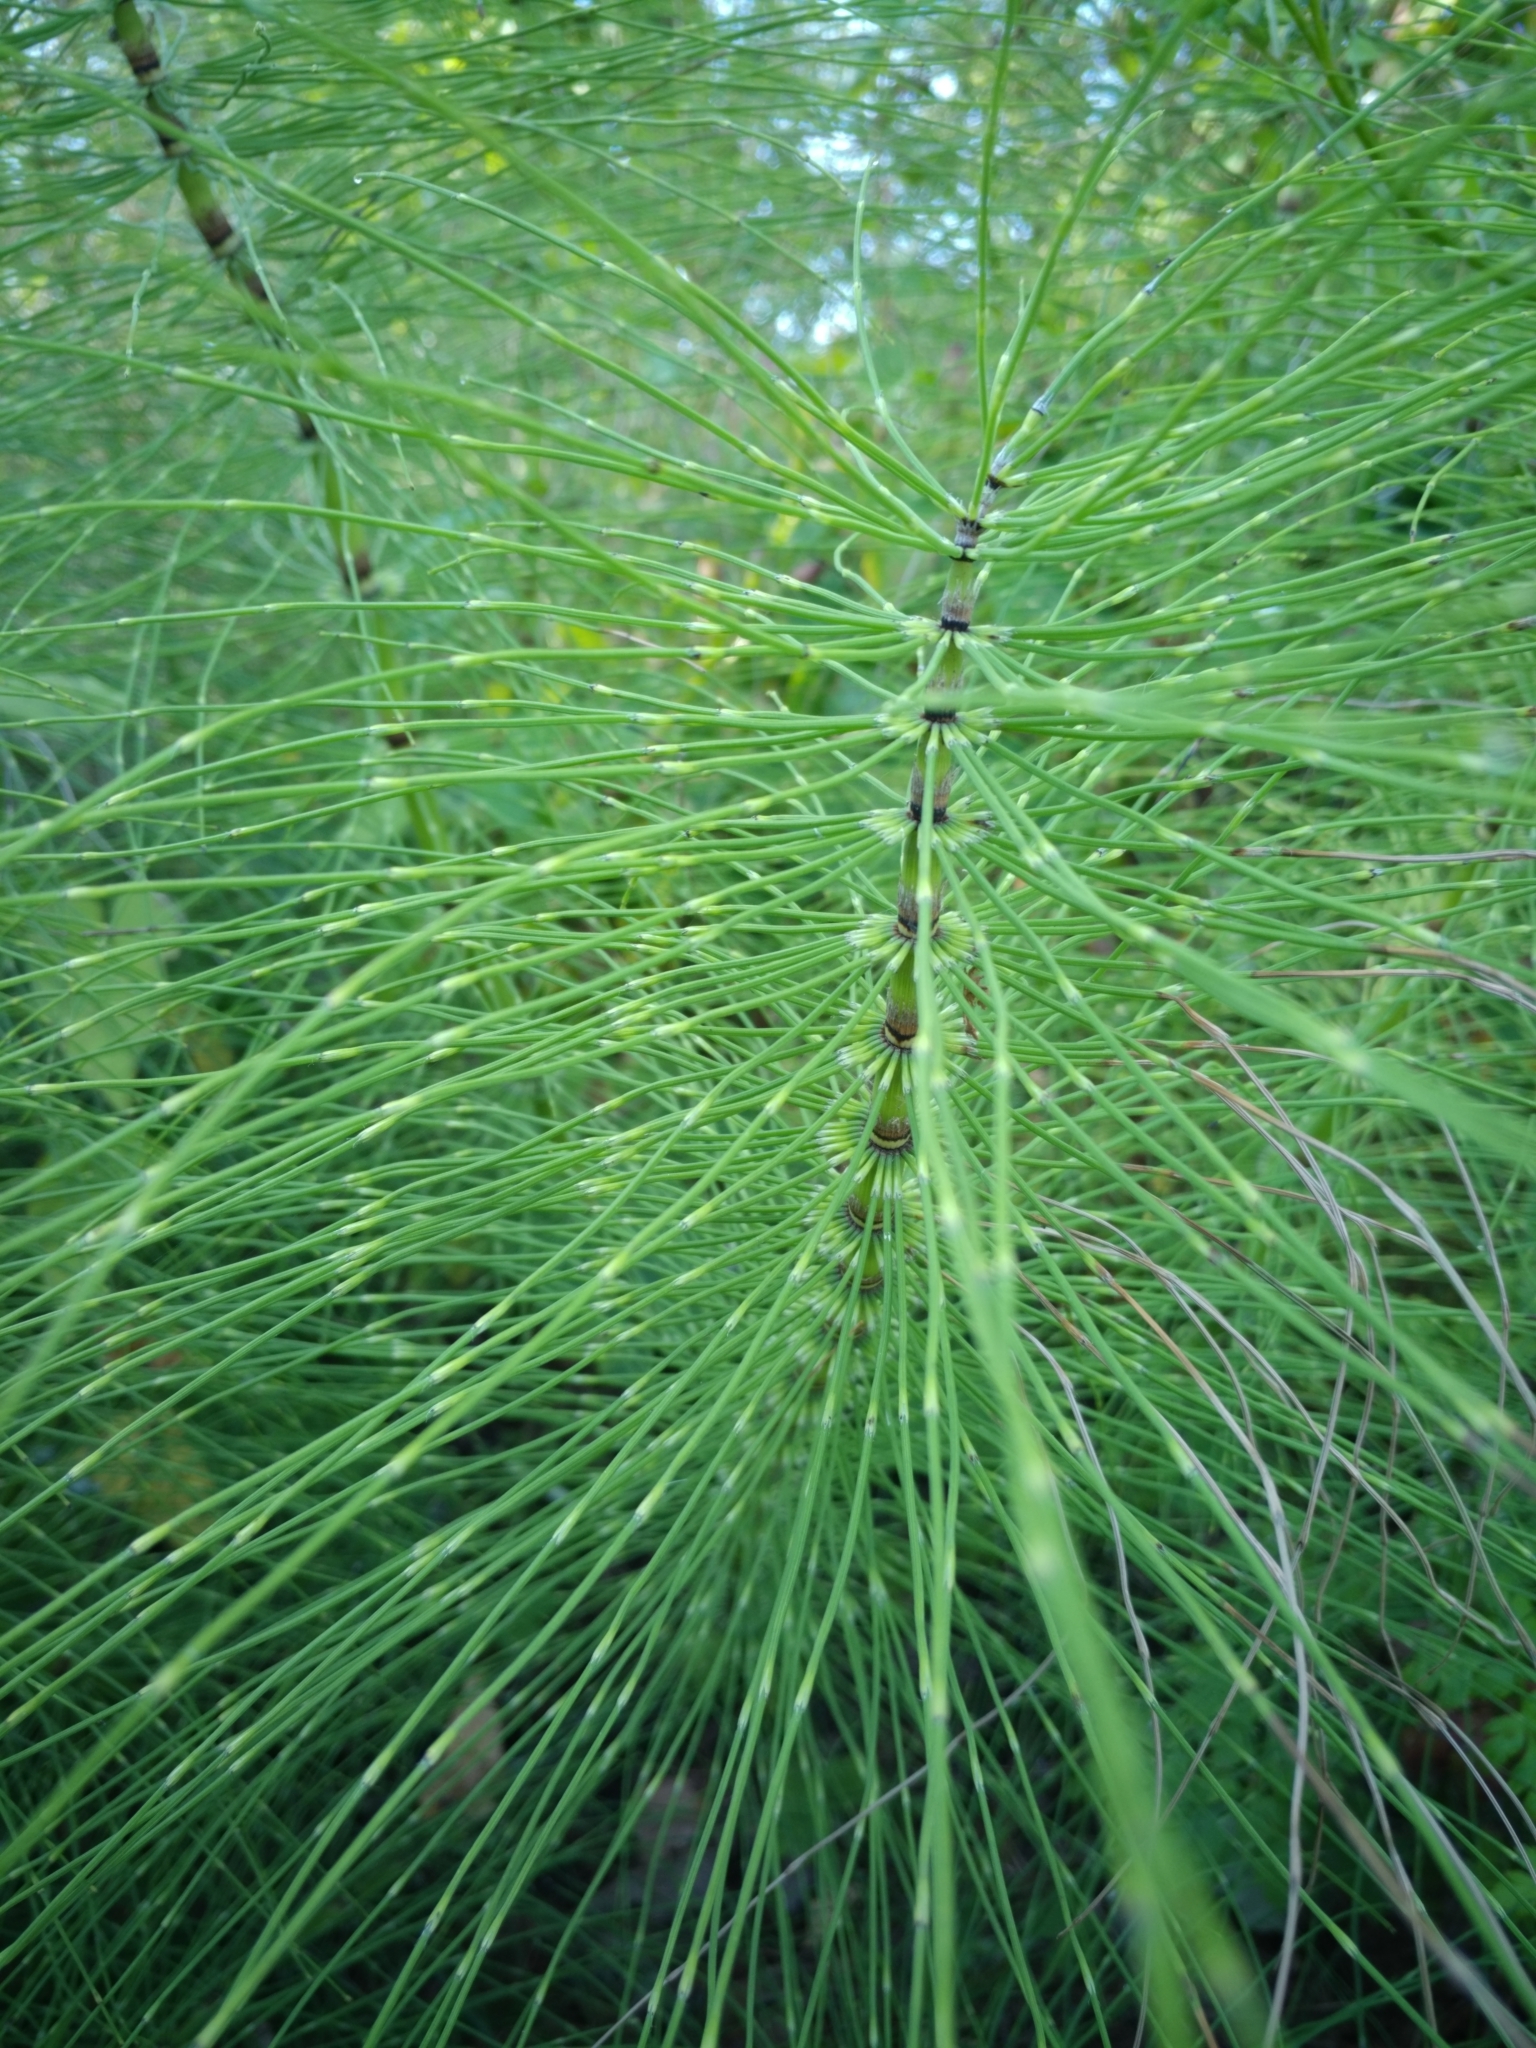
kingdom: Plantae
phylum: Tracheophyta
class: Polypodiopsida
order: Equisetales
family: Equisetaceae
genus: Equisetum
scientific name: Equisetum braunii
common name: Braun's horsetail
